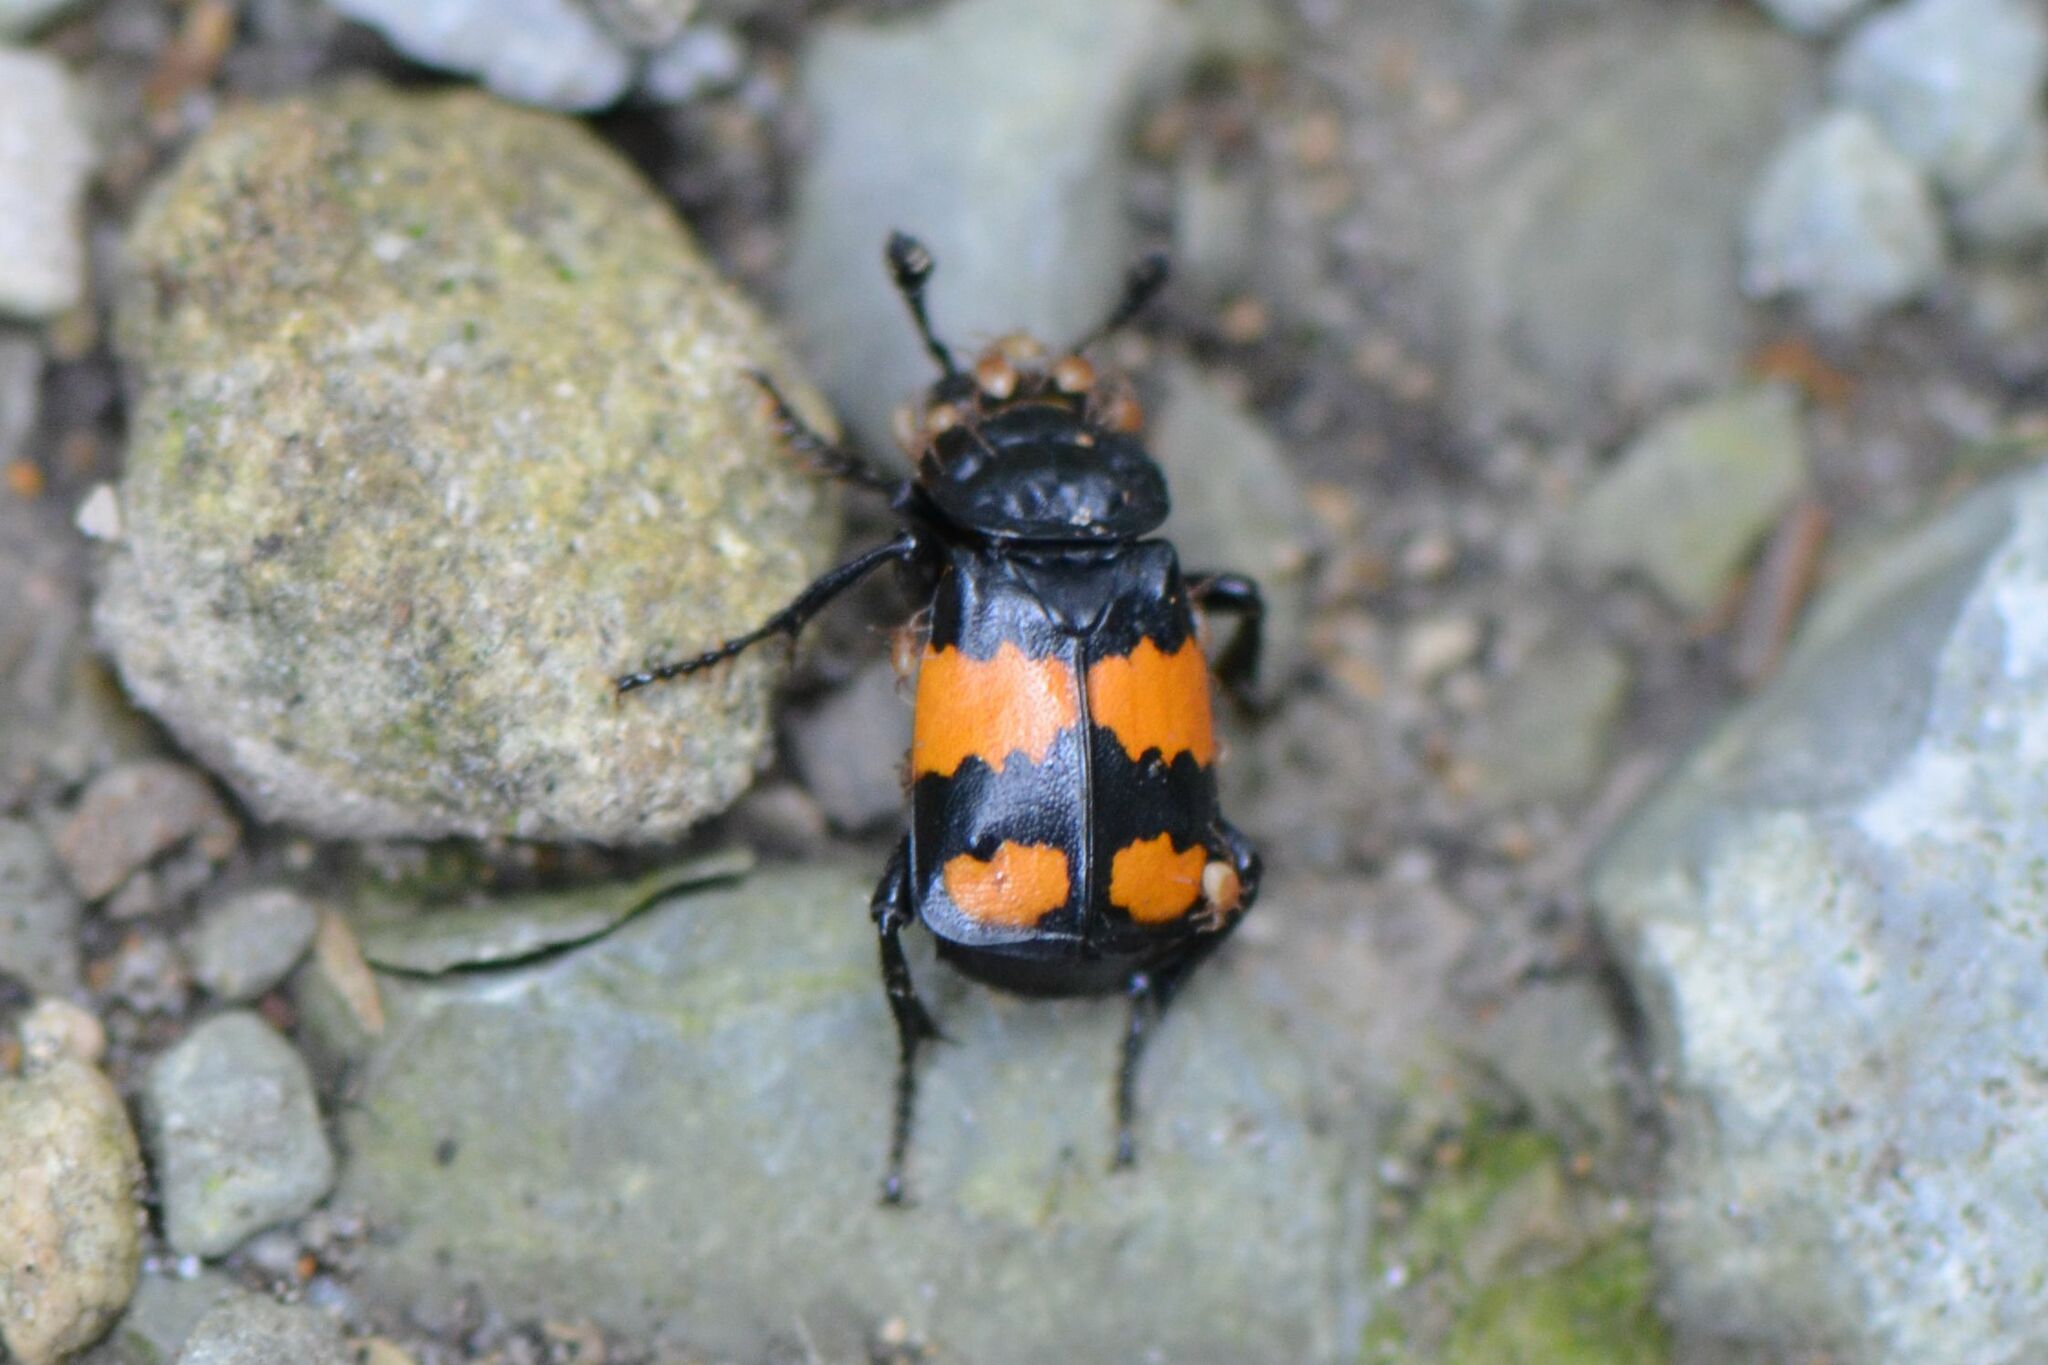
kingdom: Animalia
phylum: Arthropoda
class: Insecta
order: Coleoptera
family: Staphylinidae
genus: Nicrophorus
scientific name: Nicrophorus vespilloides
